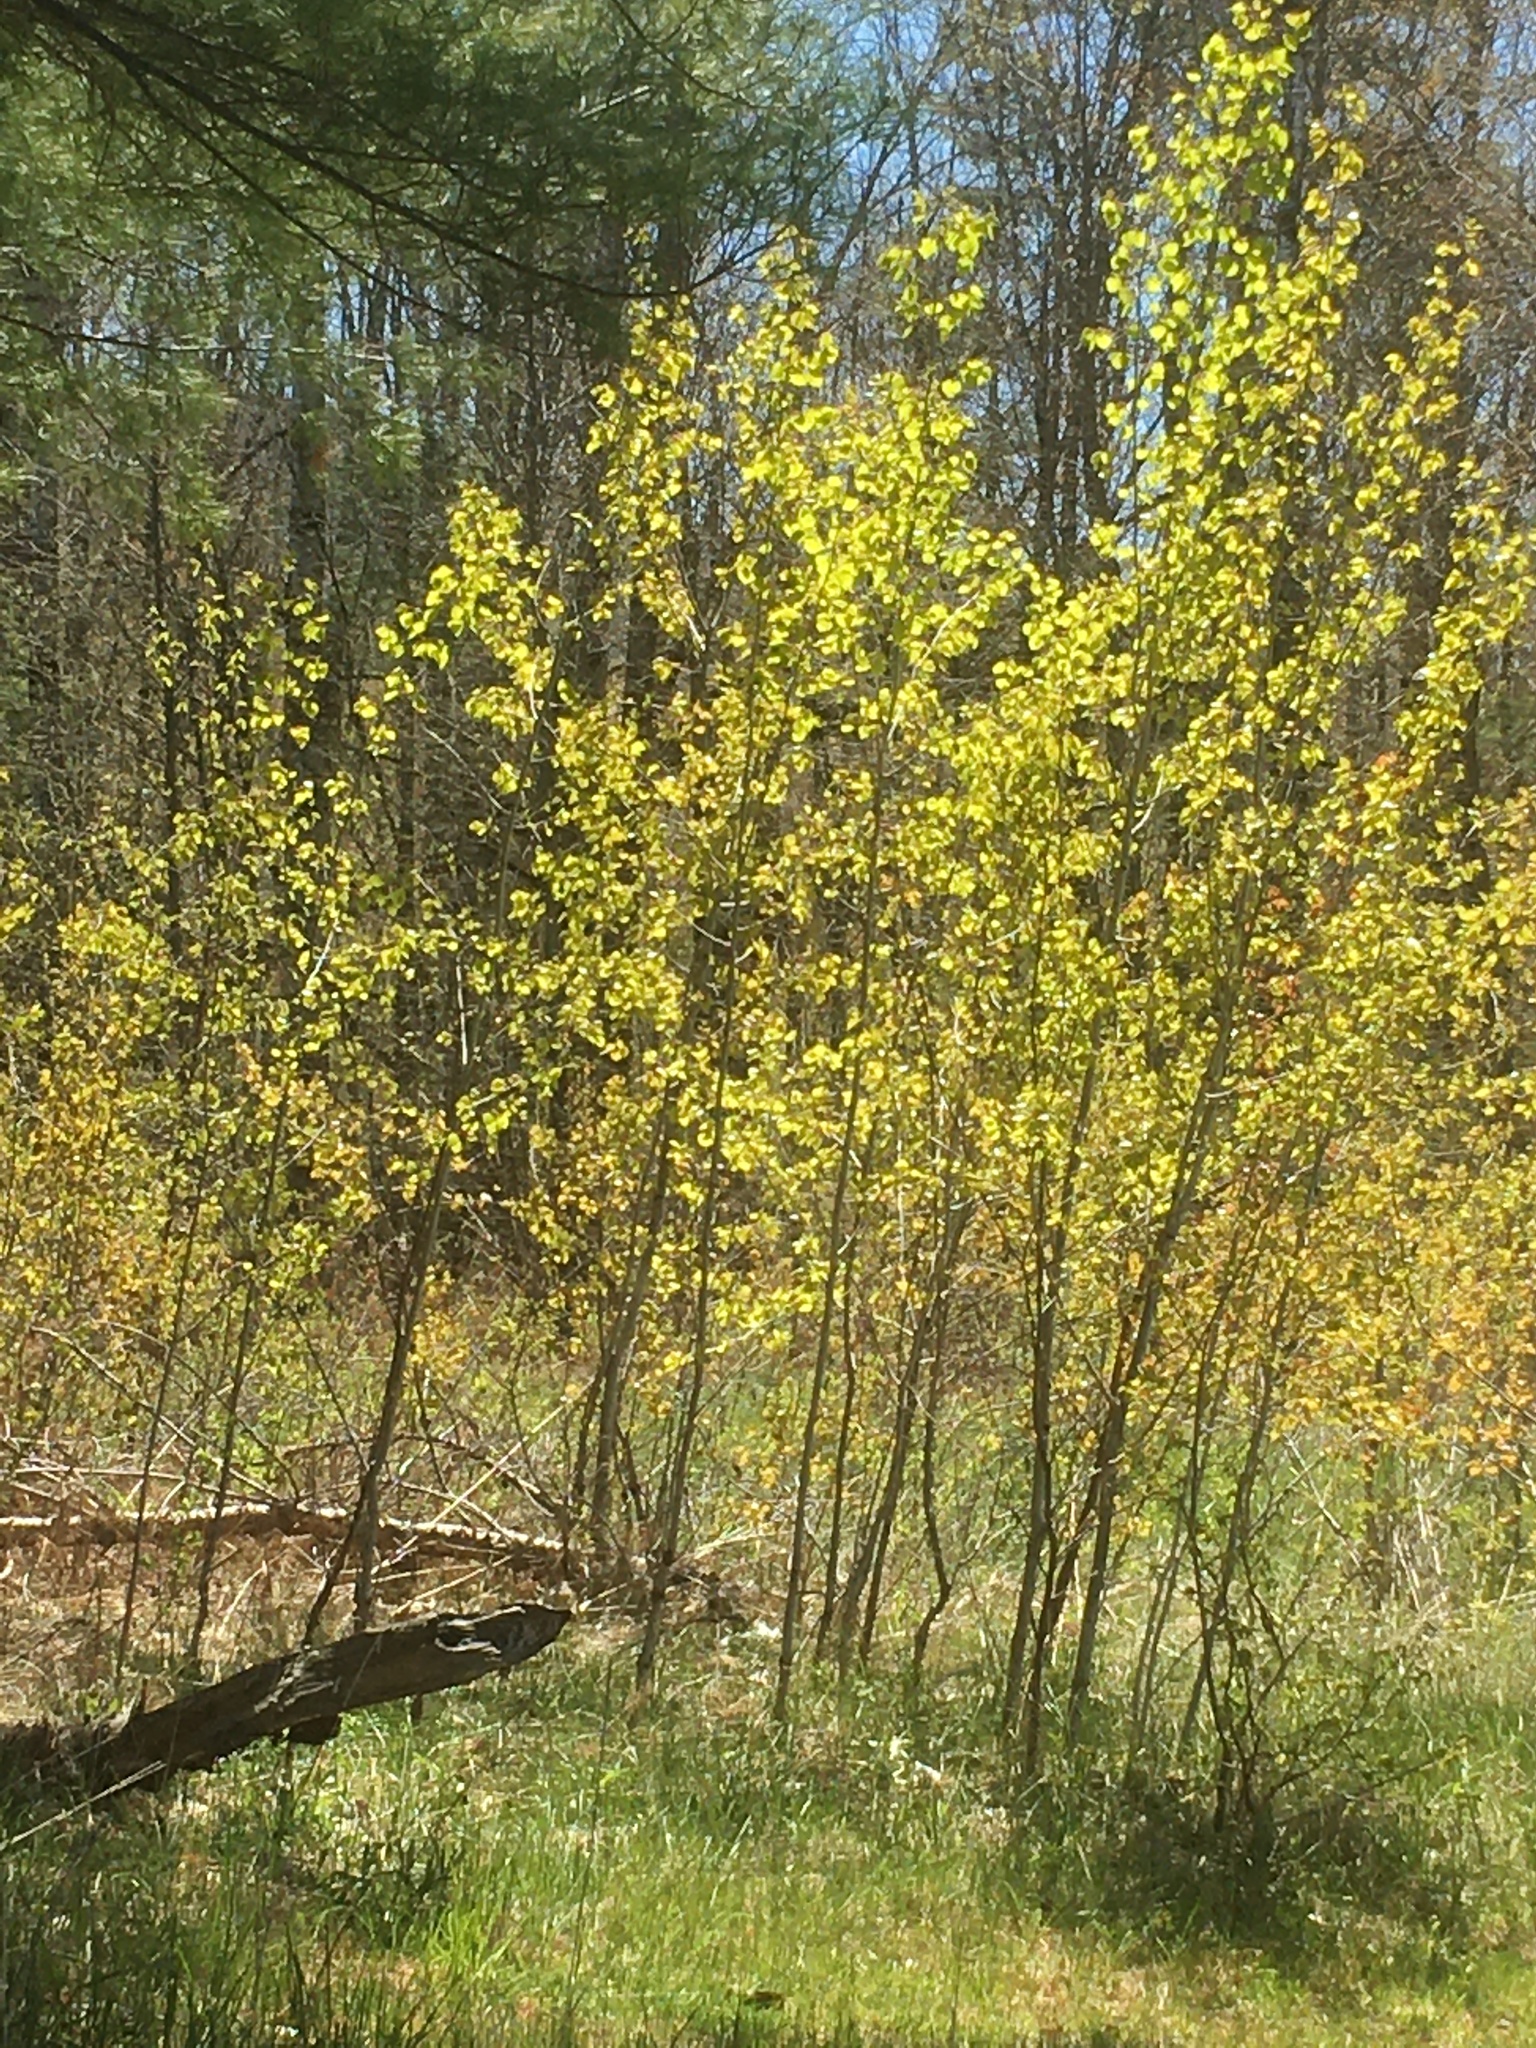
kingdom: Plantae
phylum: Tracheophyta
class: Magnoliopsida
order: Malpighiales
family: Salicaceae
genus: Populus
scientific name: Populus tremuloides
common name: Quaking aspen
